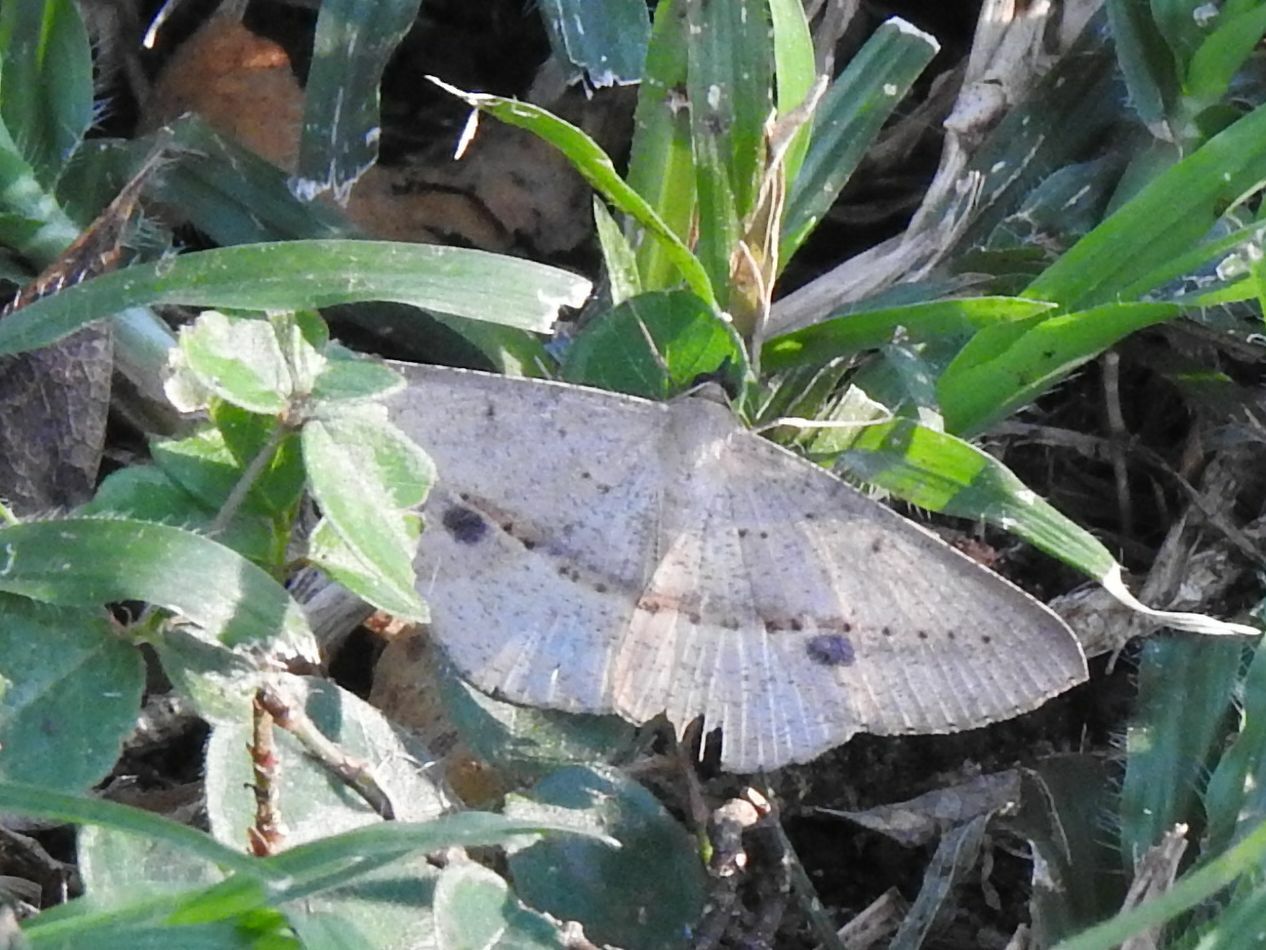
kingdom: Animalia
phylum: Arthropoda
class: Insecta
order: Lepidoptera
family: Geometridae
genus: Conolophia
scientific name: Conolophia conscitaria
